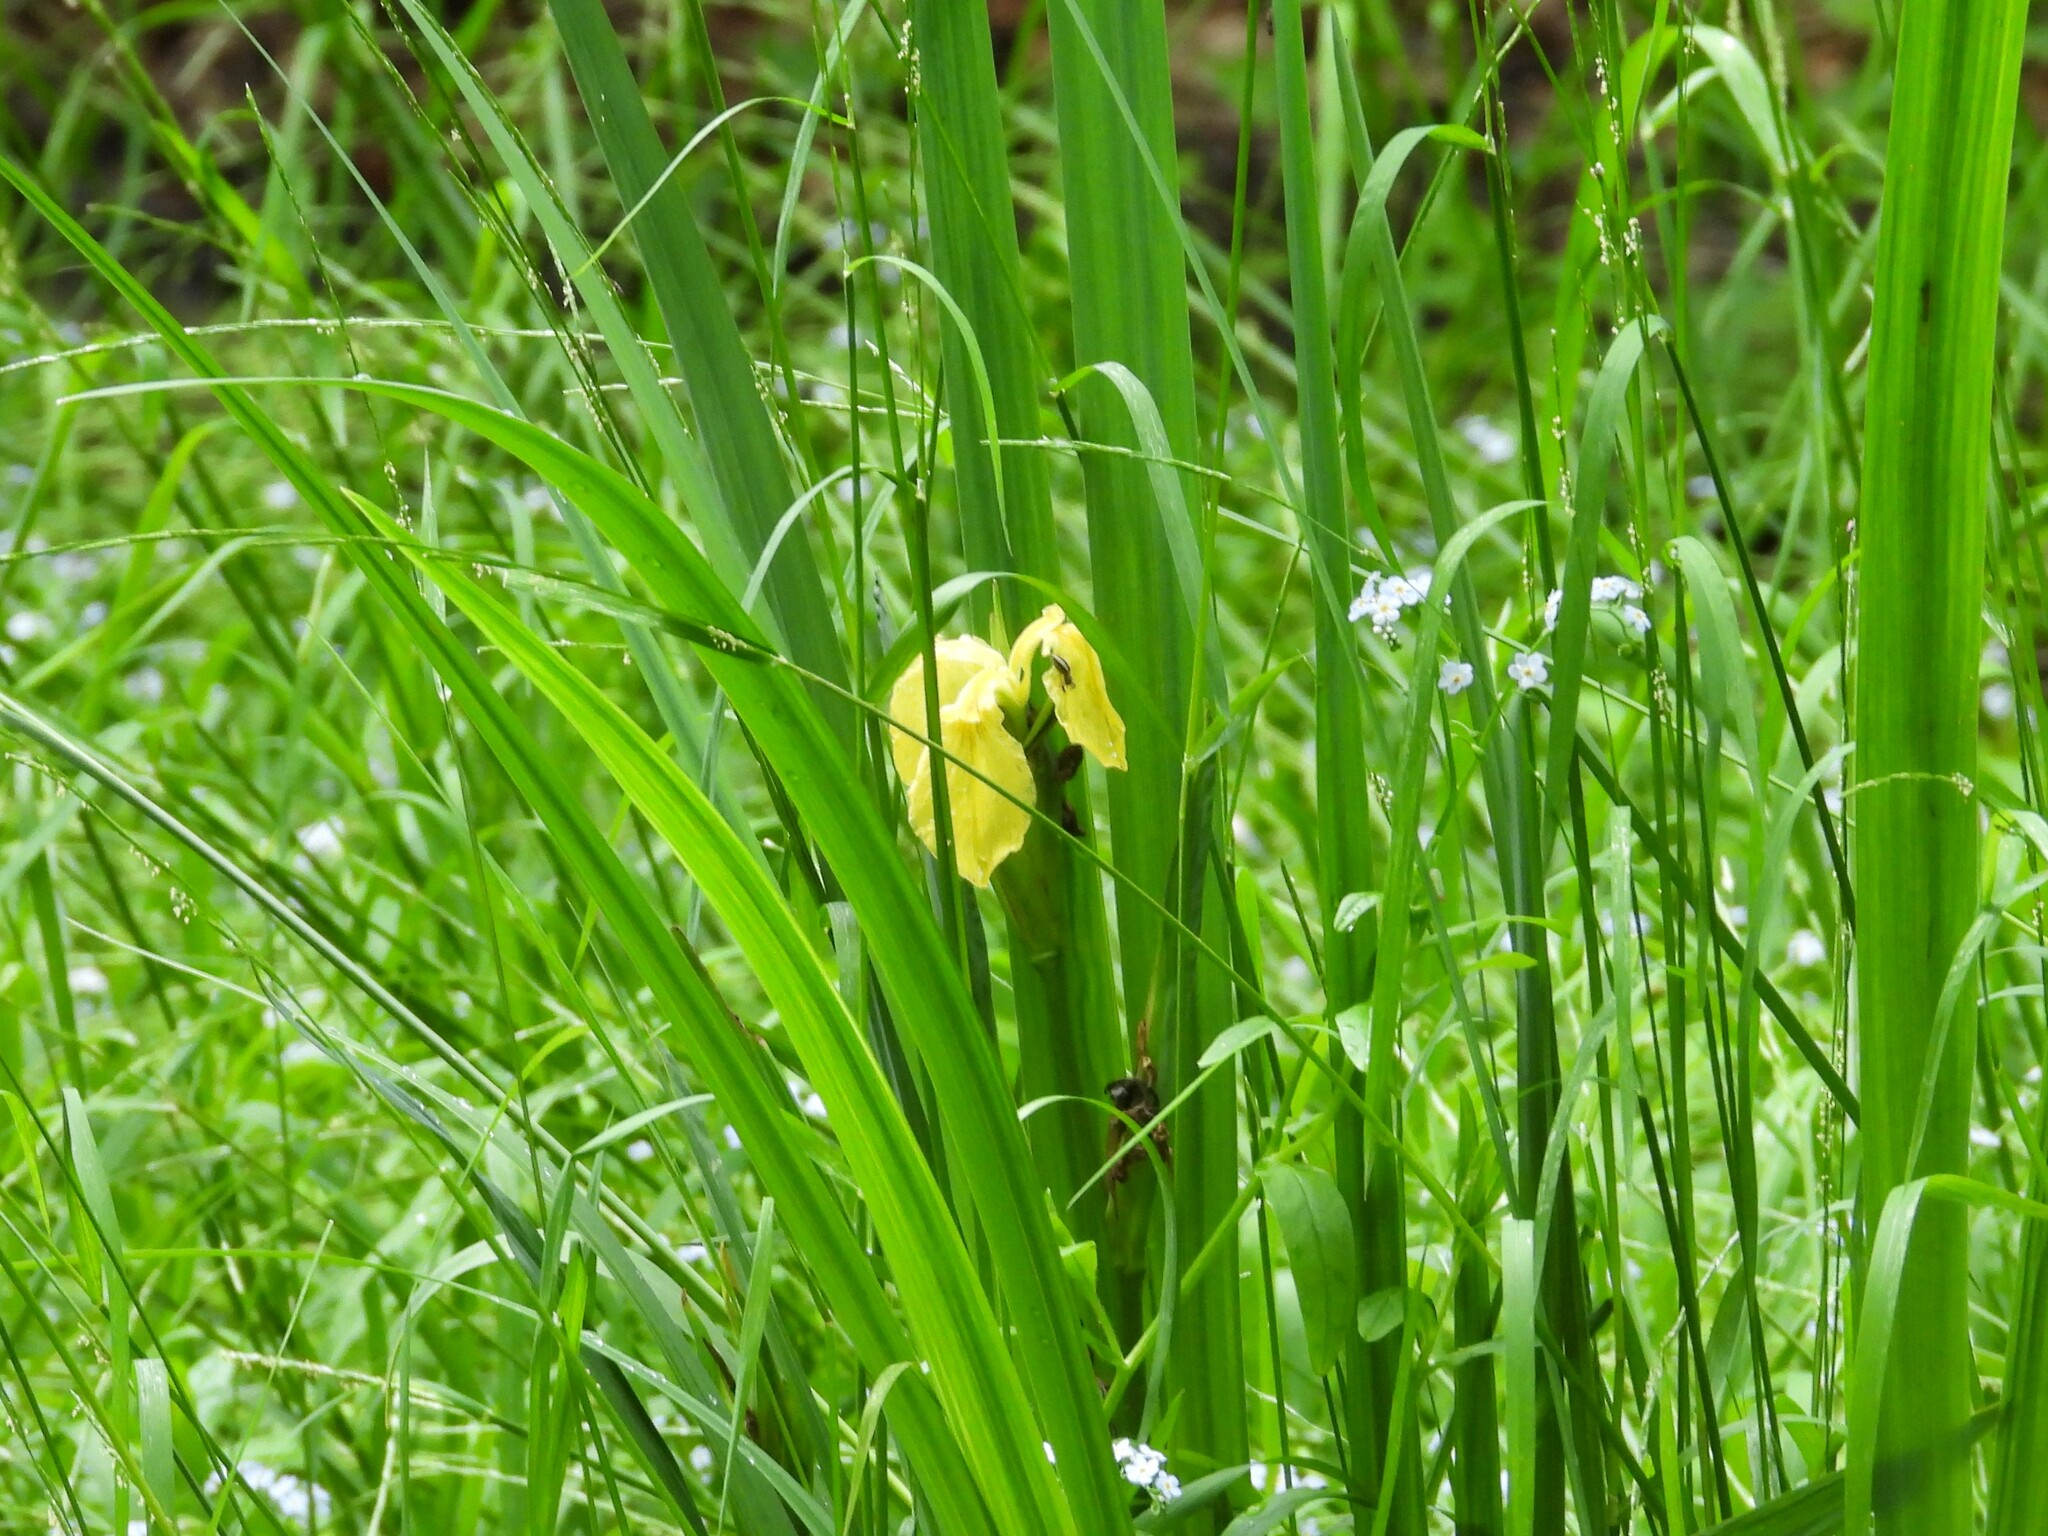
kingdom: Plantae
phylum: Tracheophyta
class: Liliopsida
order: Asparagales
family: Iridaceae
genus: Iris
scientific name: Iris pseudacorus
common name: Yellow flag
